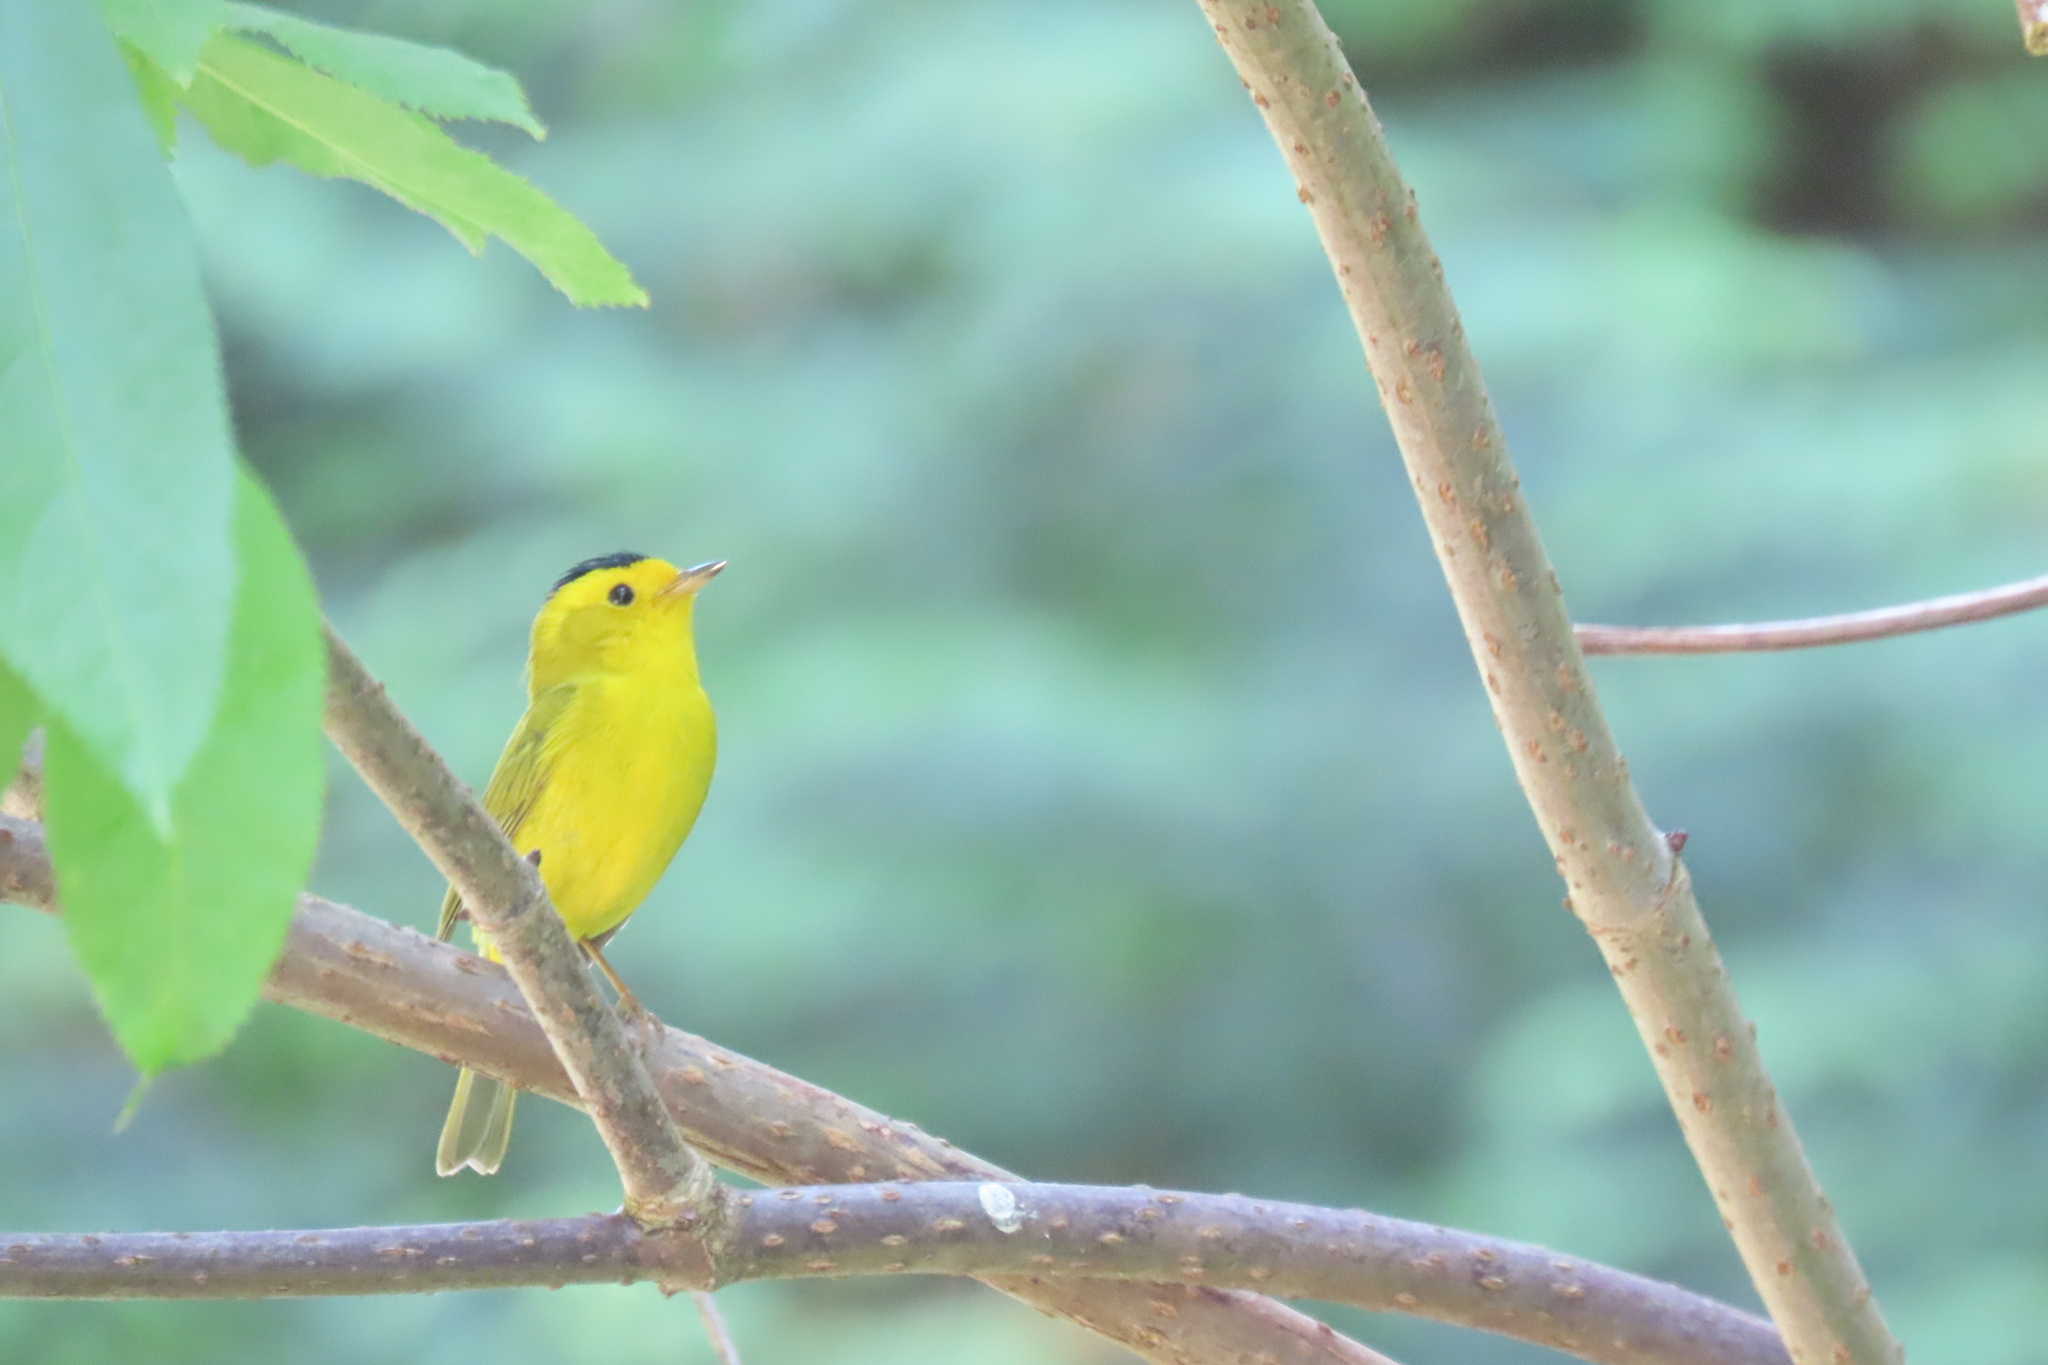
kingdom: Animalia
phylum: Chordata
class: Aves
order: Passeriformes
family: Parulidae
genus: Cardellina
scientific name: Cardellina pusilla
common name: Wilson's warbler
